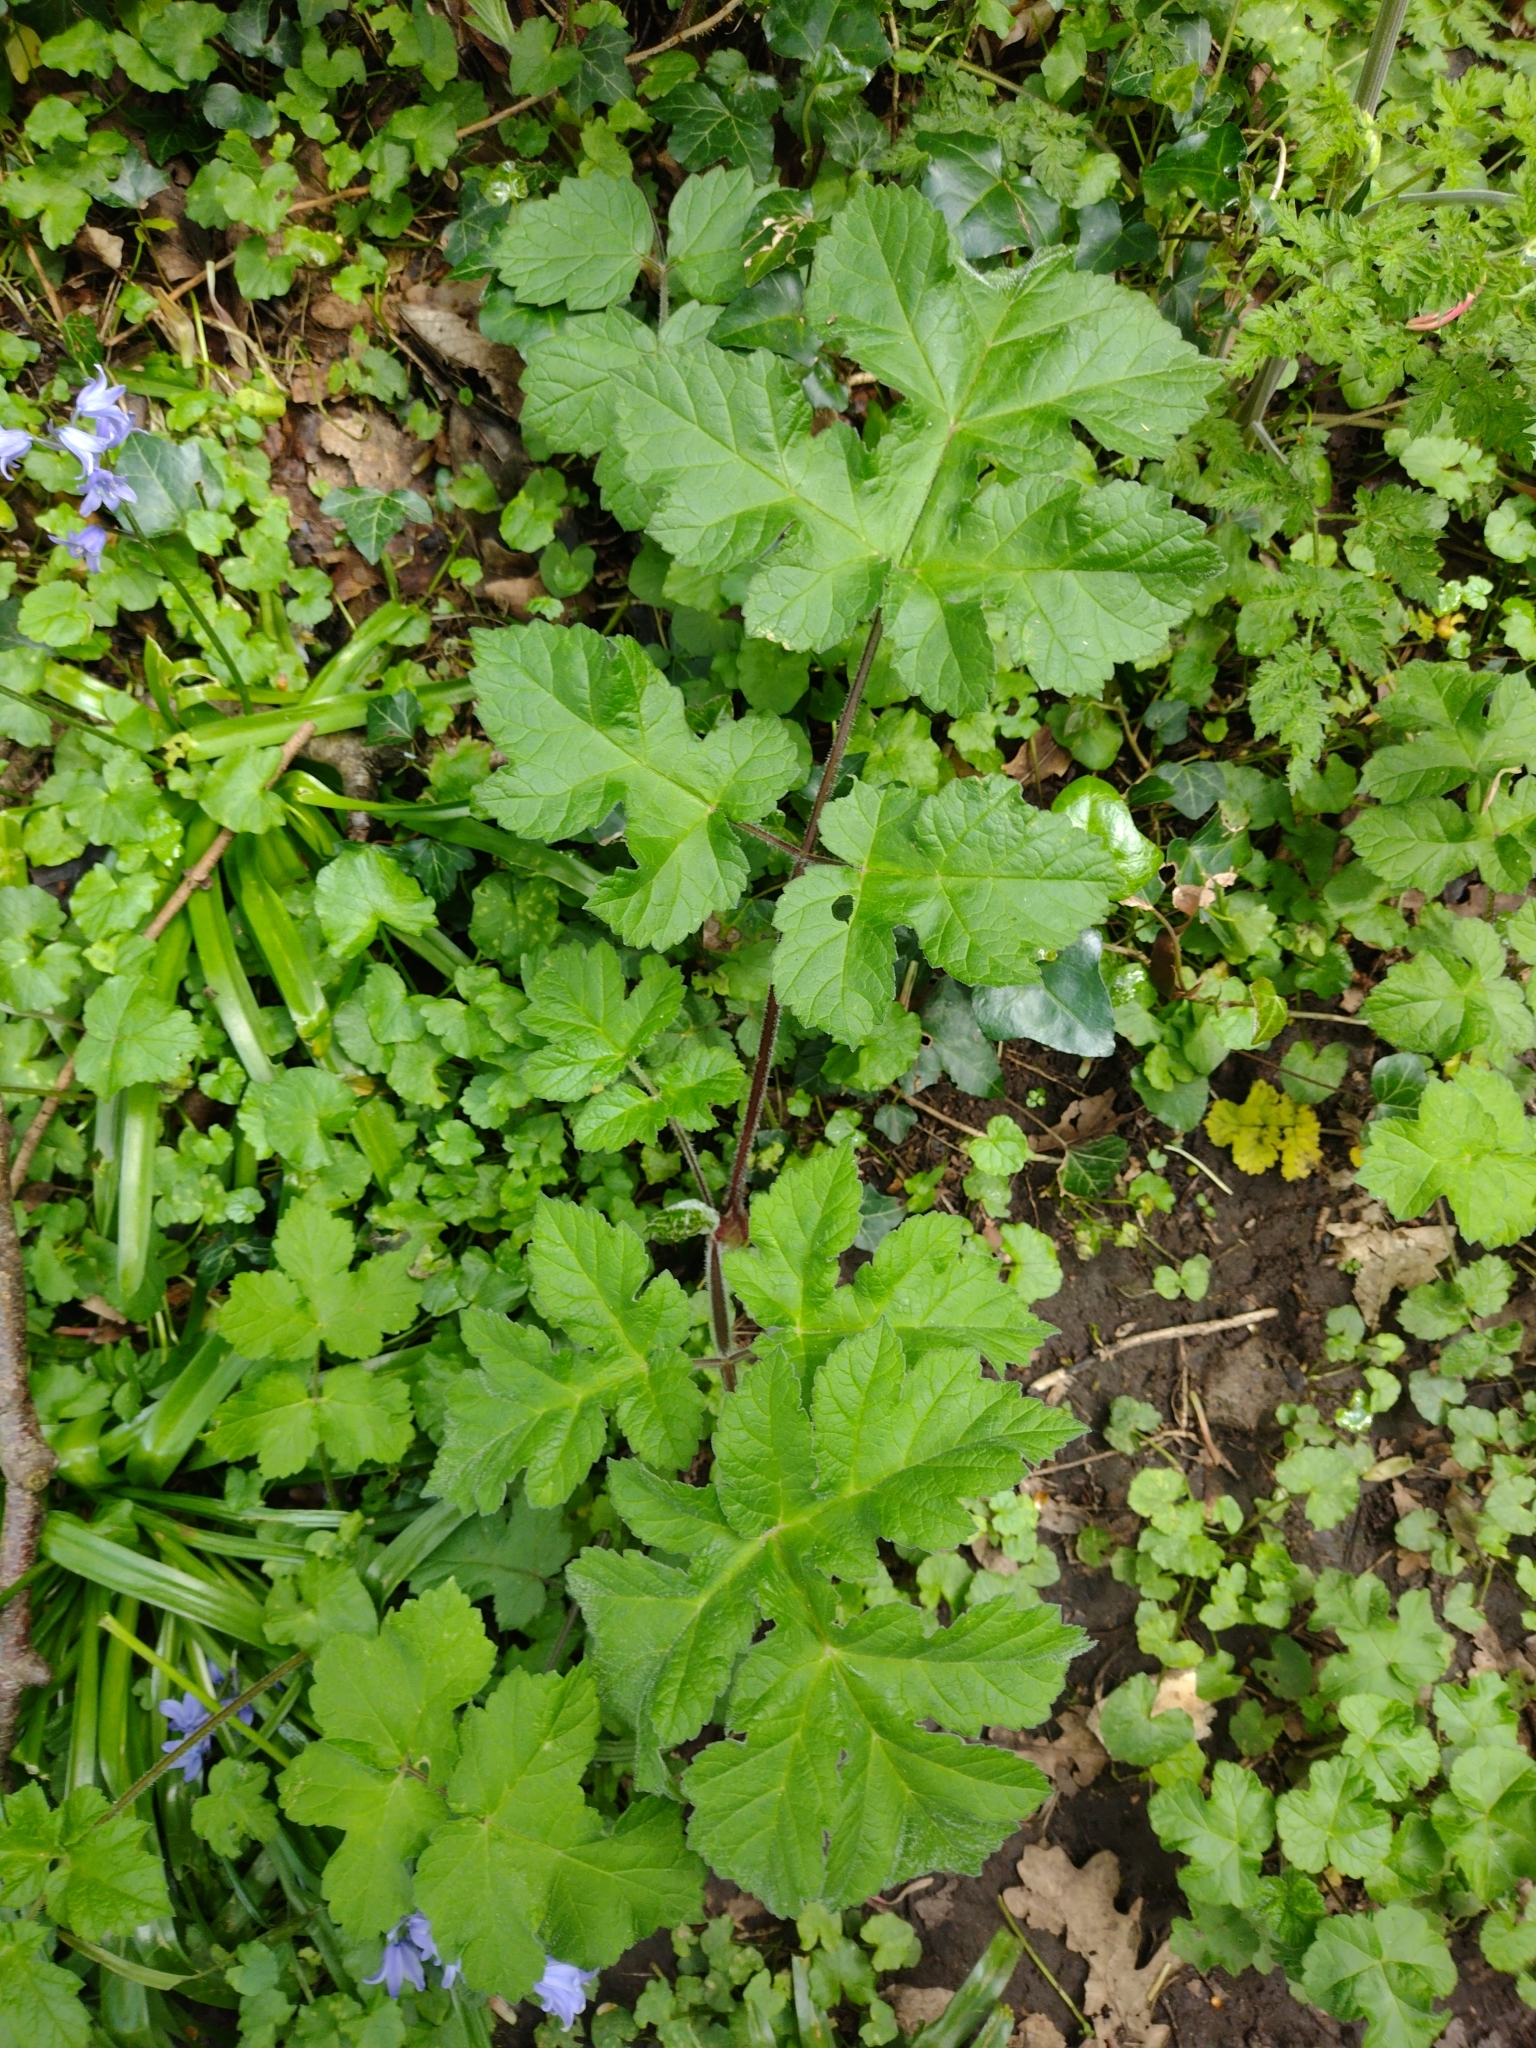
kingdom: Plantae
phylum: Tracheophyta
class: Magnoliopsida
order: Apiales
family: Apiaceae
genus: Heracleum
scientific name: Heracleum sphondylium
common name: Hogweed
